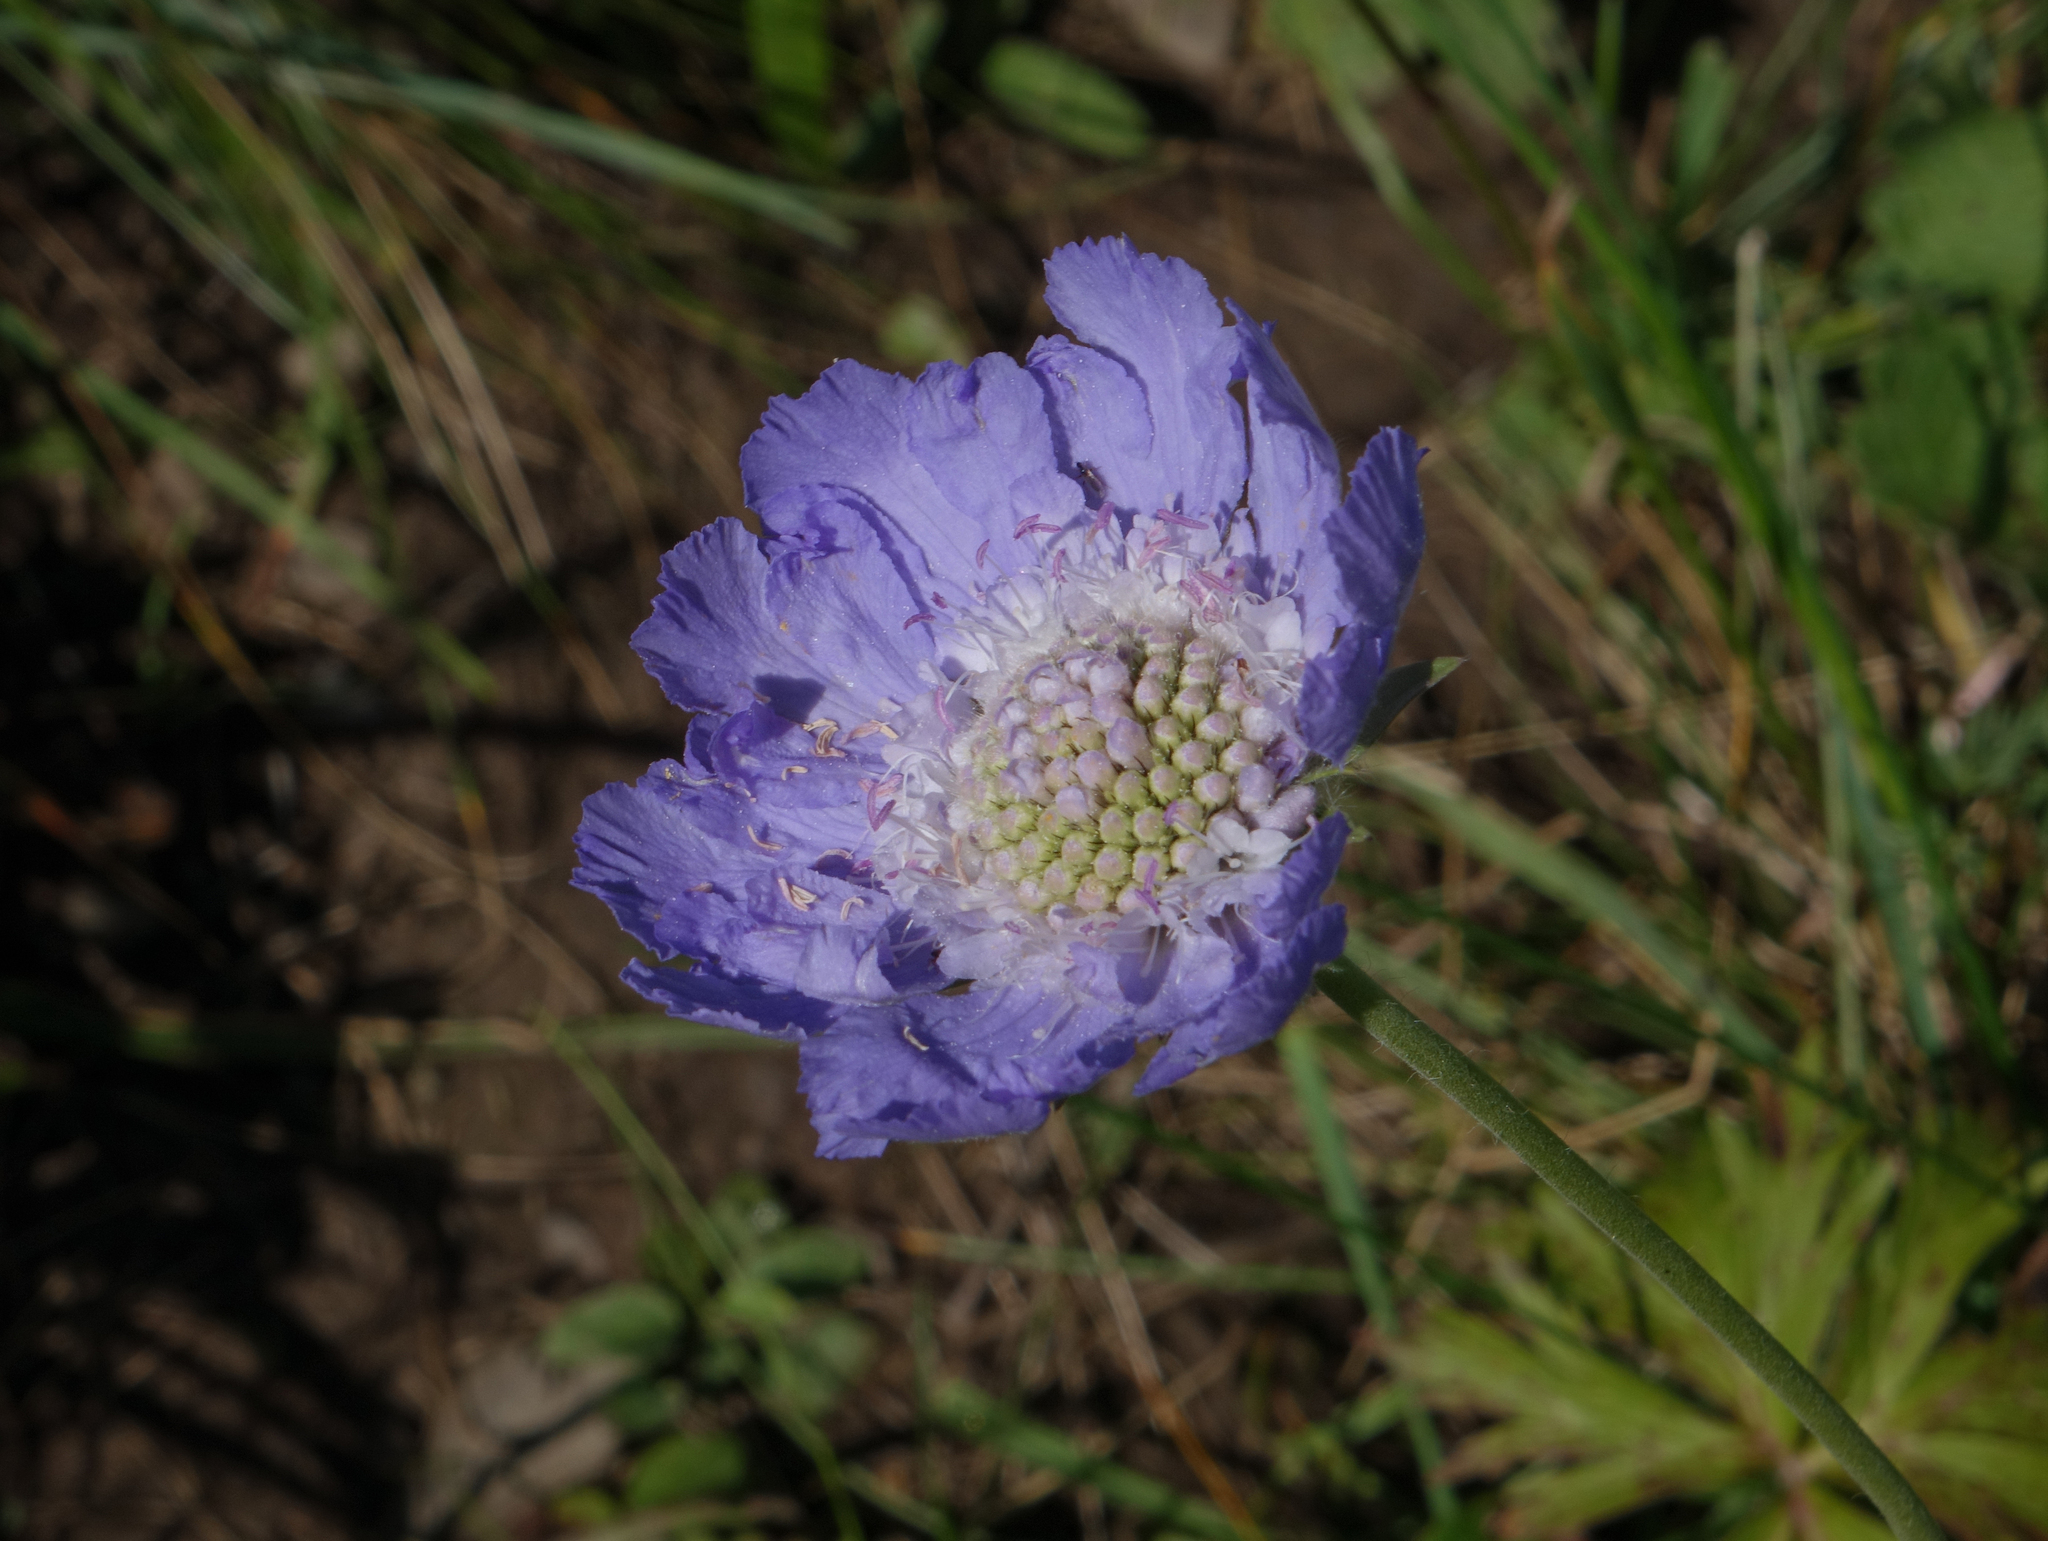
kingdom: Plantae
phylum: Tracheophyta
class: Magnoliopsida
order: Dipsacales
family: Caprifoliaceae
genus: Lomelosia
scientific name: Lomelosia caucasica
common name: Pincushion-flower
